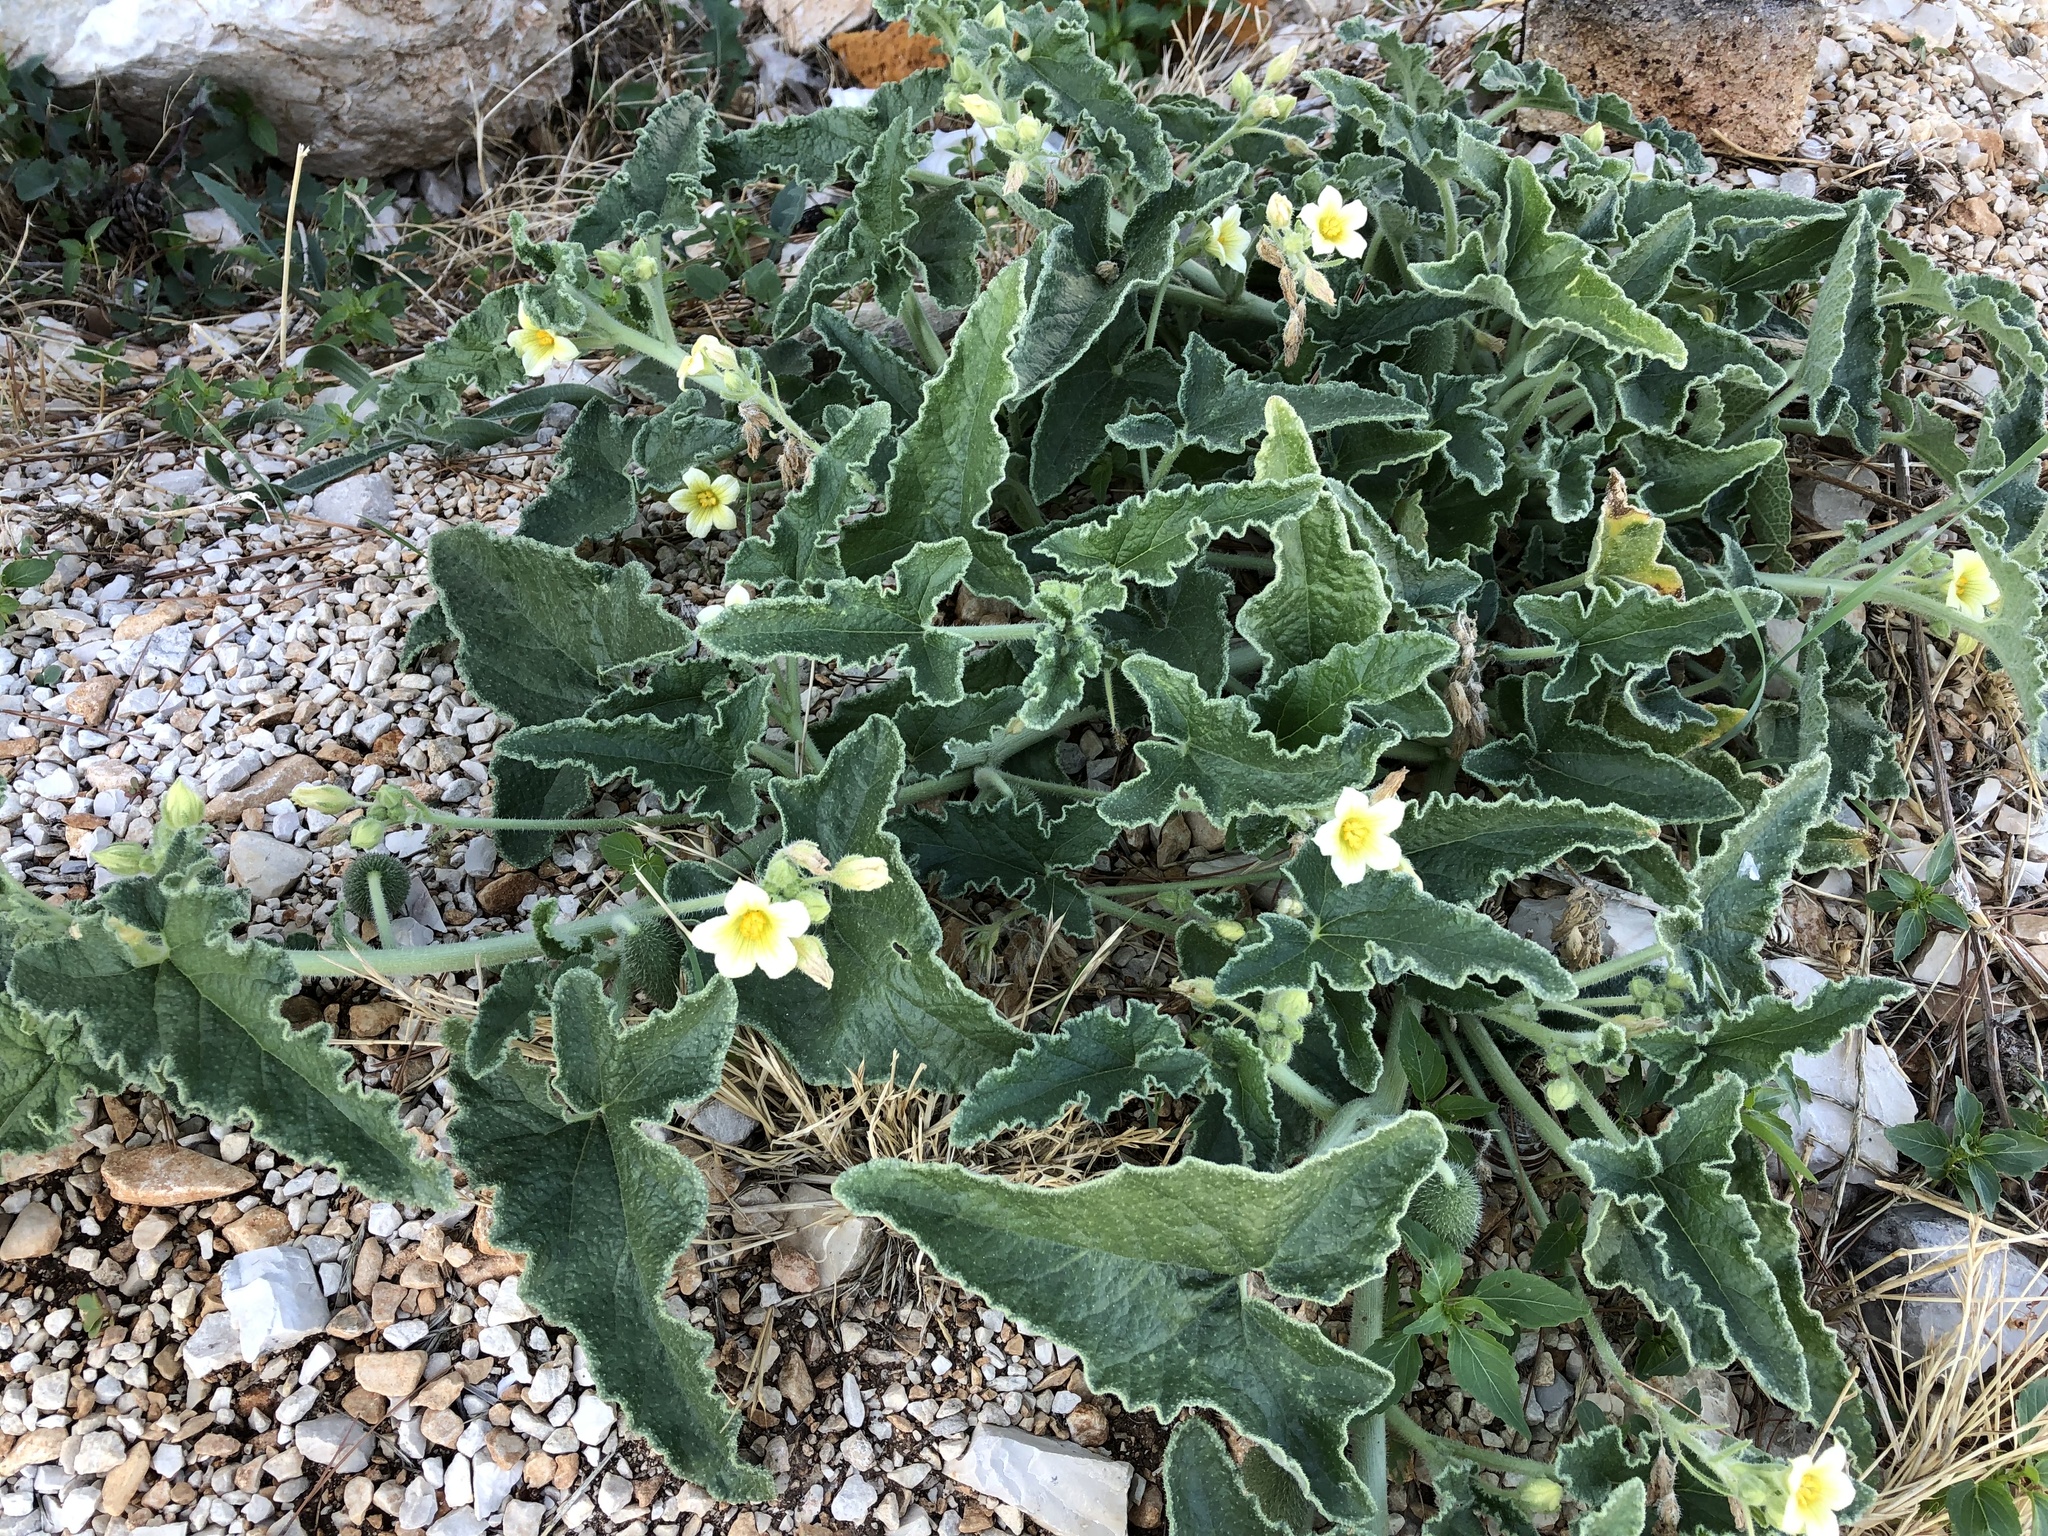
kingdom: Plantae
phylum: Tracheophyta
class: Magnoliopsida
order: Cucurbitales
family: Cucurbitaceae
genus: Ecballium
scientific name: Ecballium elaterium
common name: Squirting cucumber
